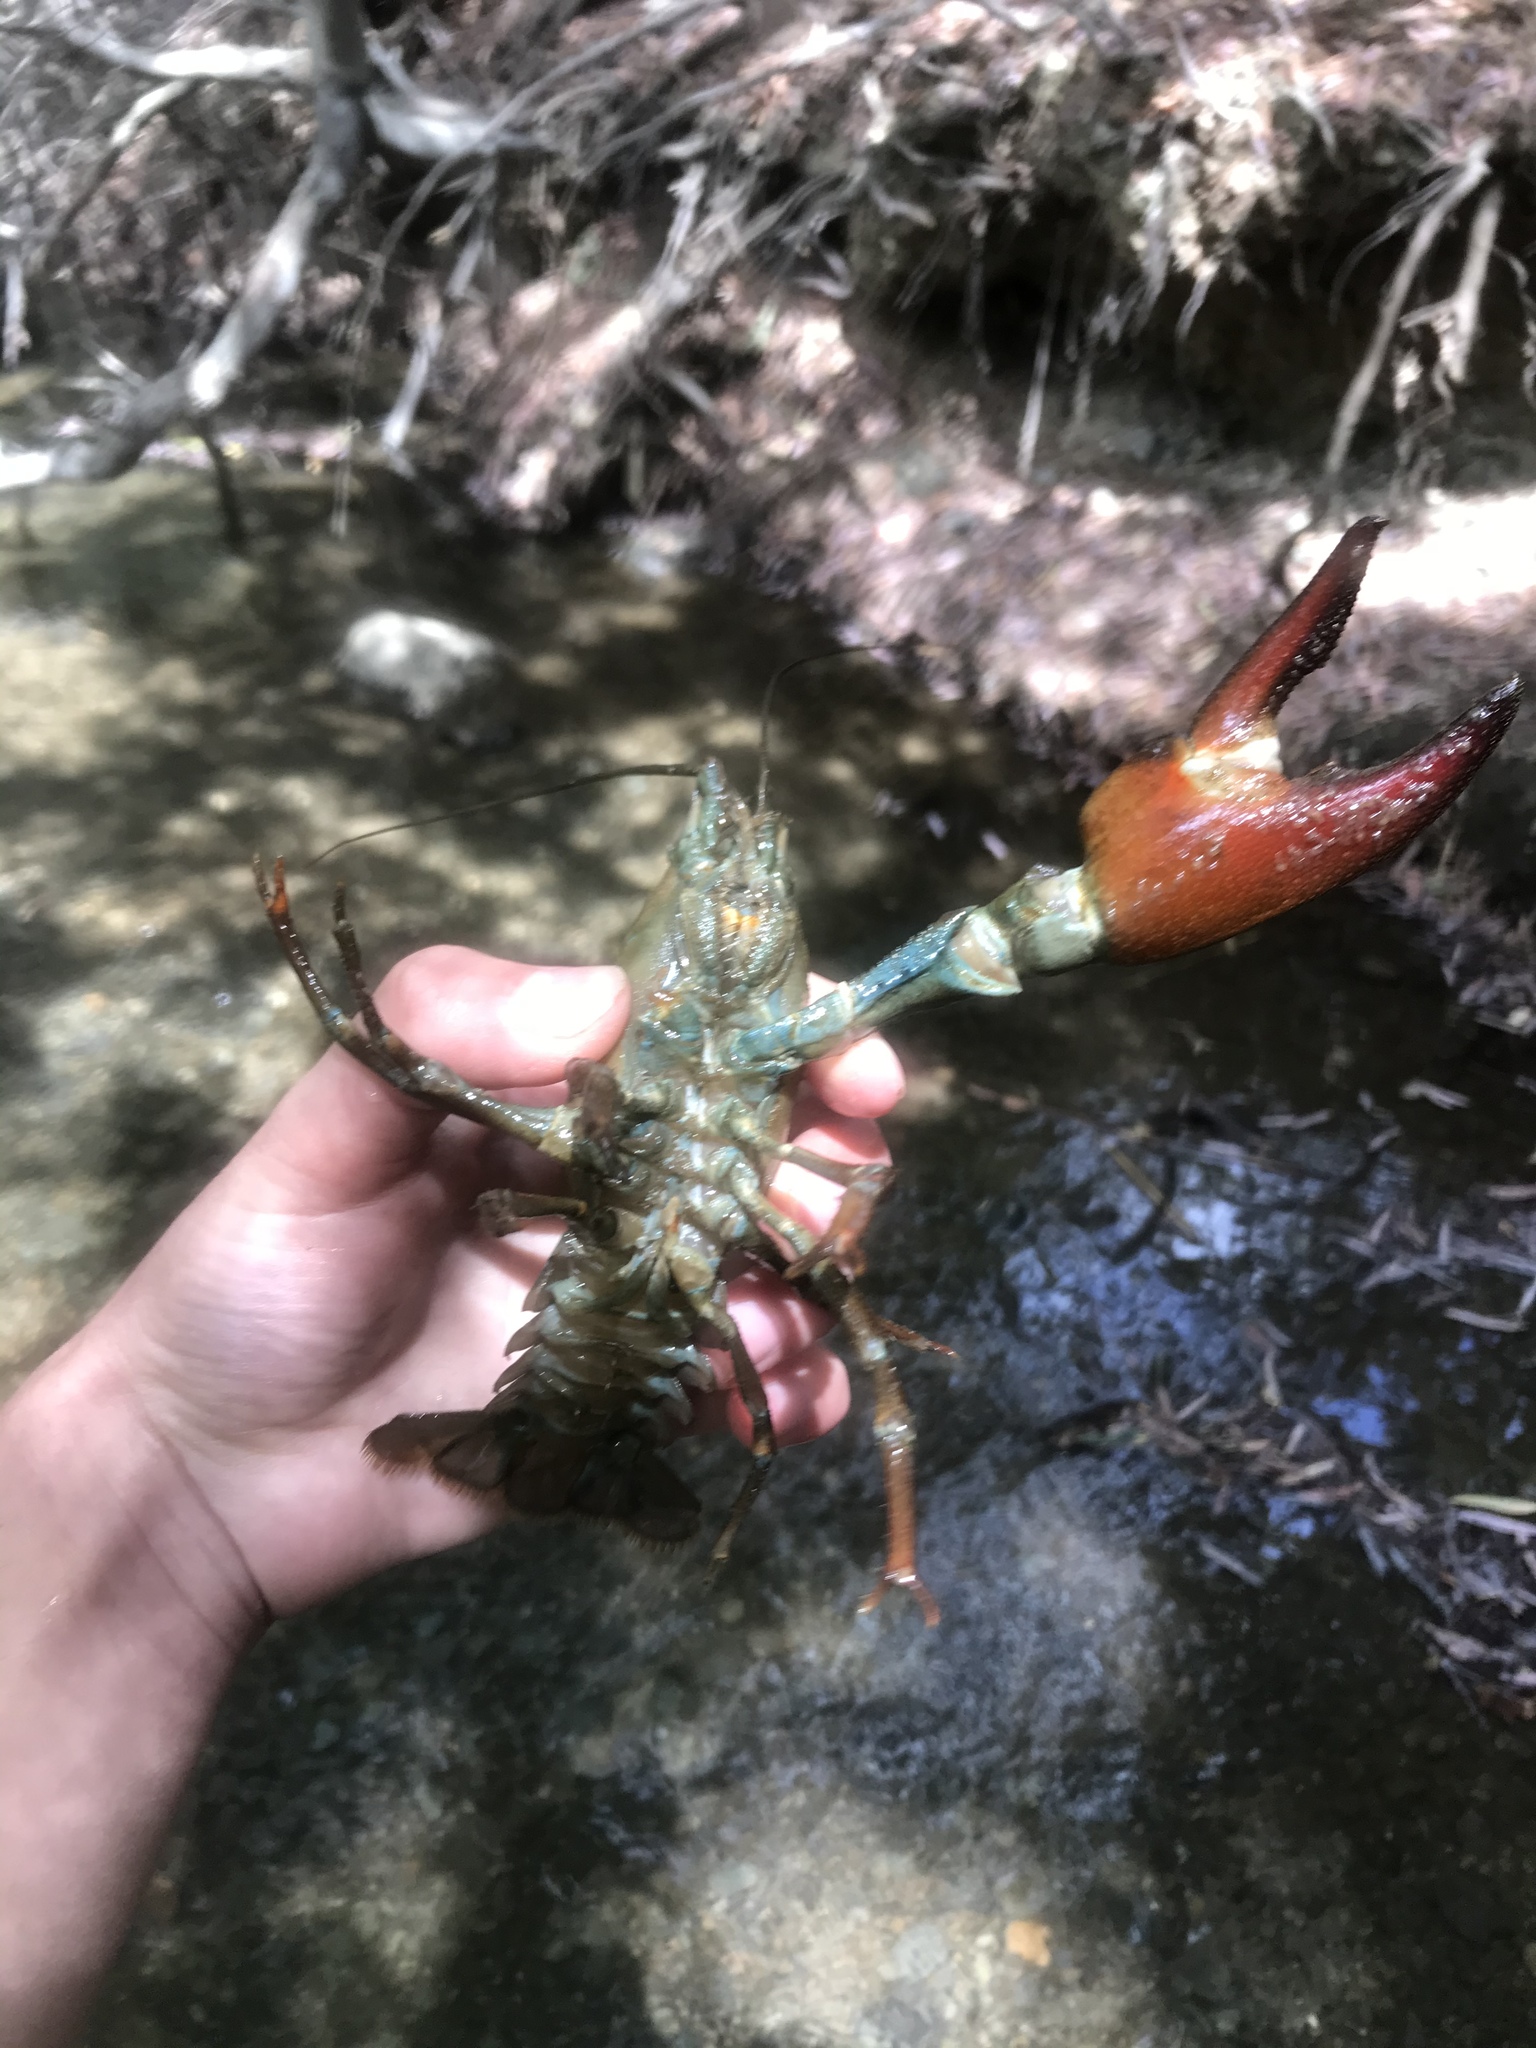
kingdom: Animalia
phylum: Arthropoda
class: Malacostraca
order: Decapoda
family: Astacidae
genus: Pacifastacus
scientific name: Pacifastacus leniusculus
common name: Signal crayfish
